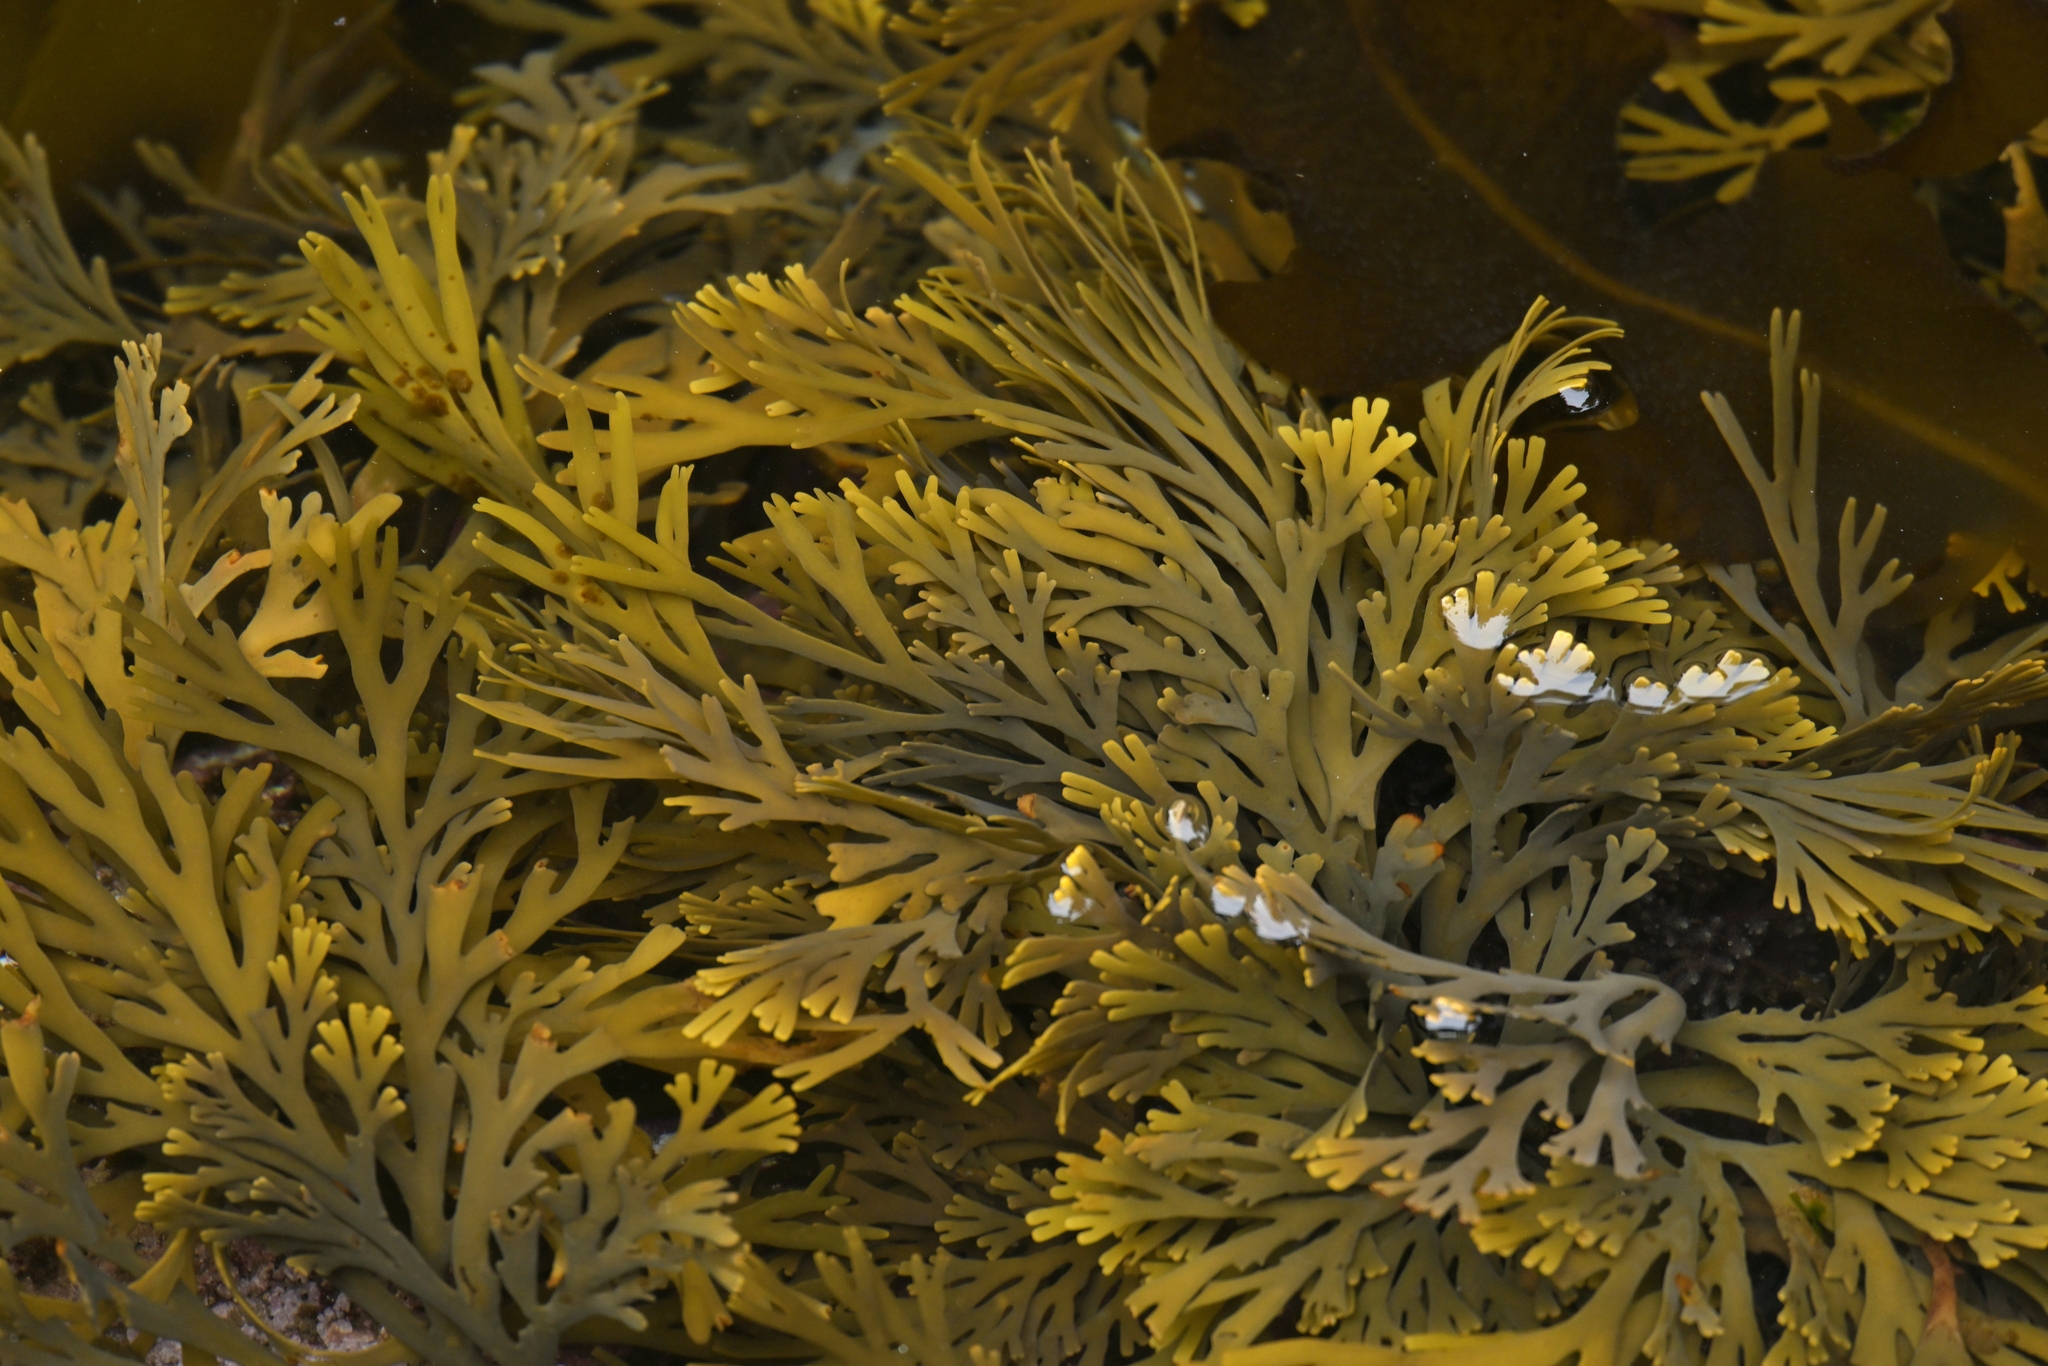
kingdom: Chromista
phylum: Ochrophyta
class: Phaeophyceae
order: Fucales
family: Xiphophoraceae
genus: Xiphophora
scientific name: Xiphophora gladiata
